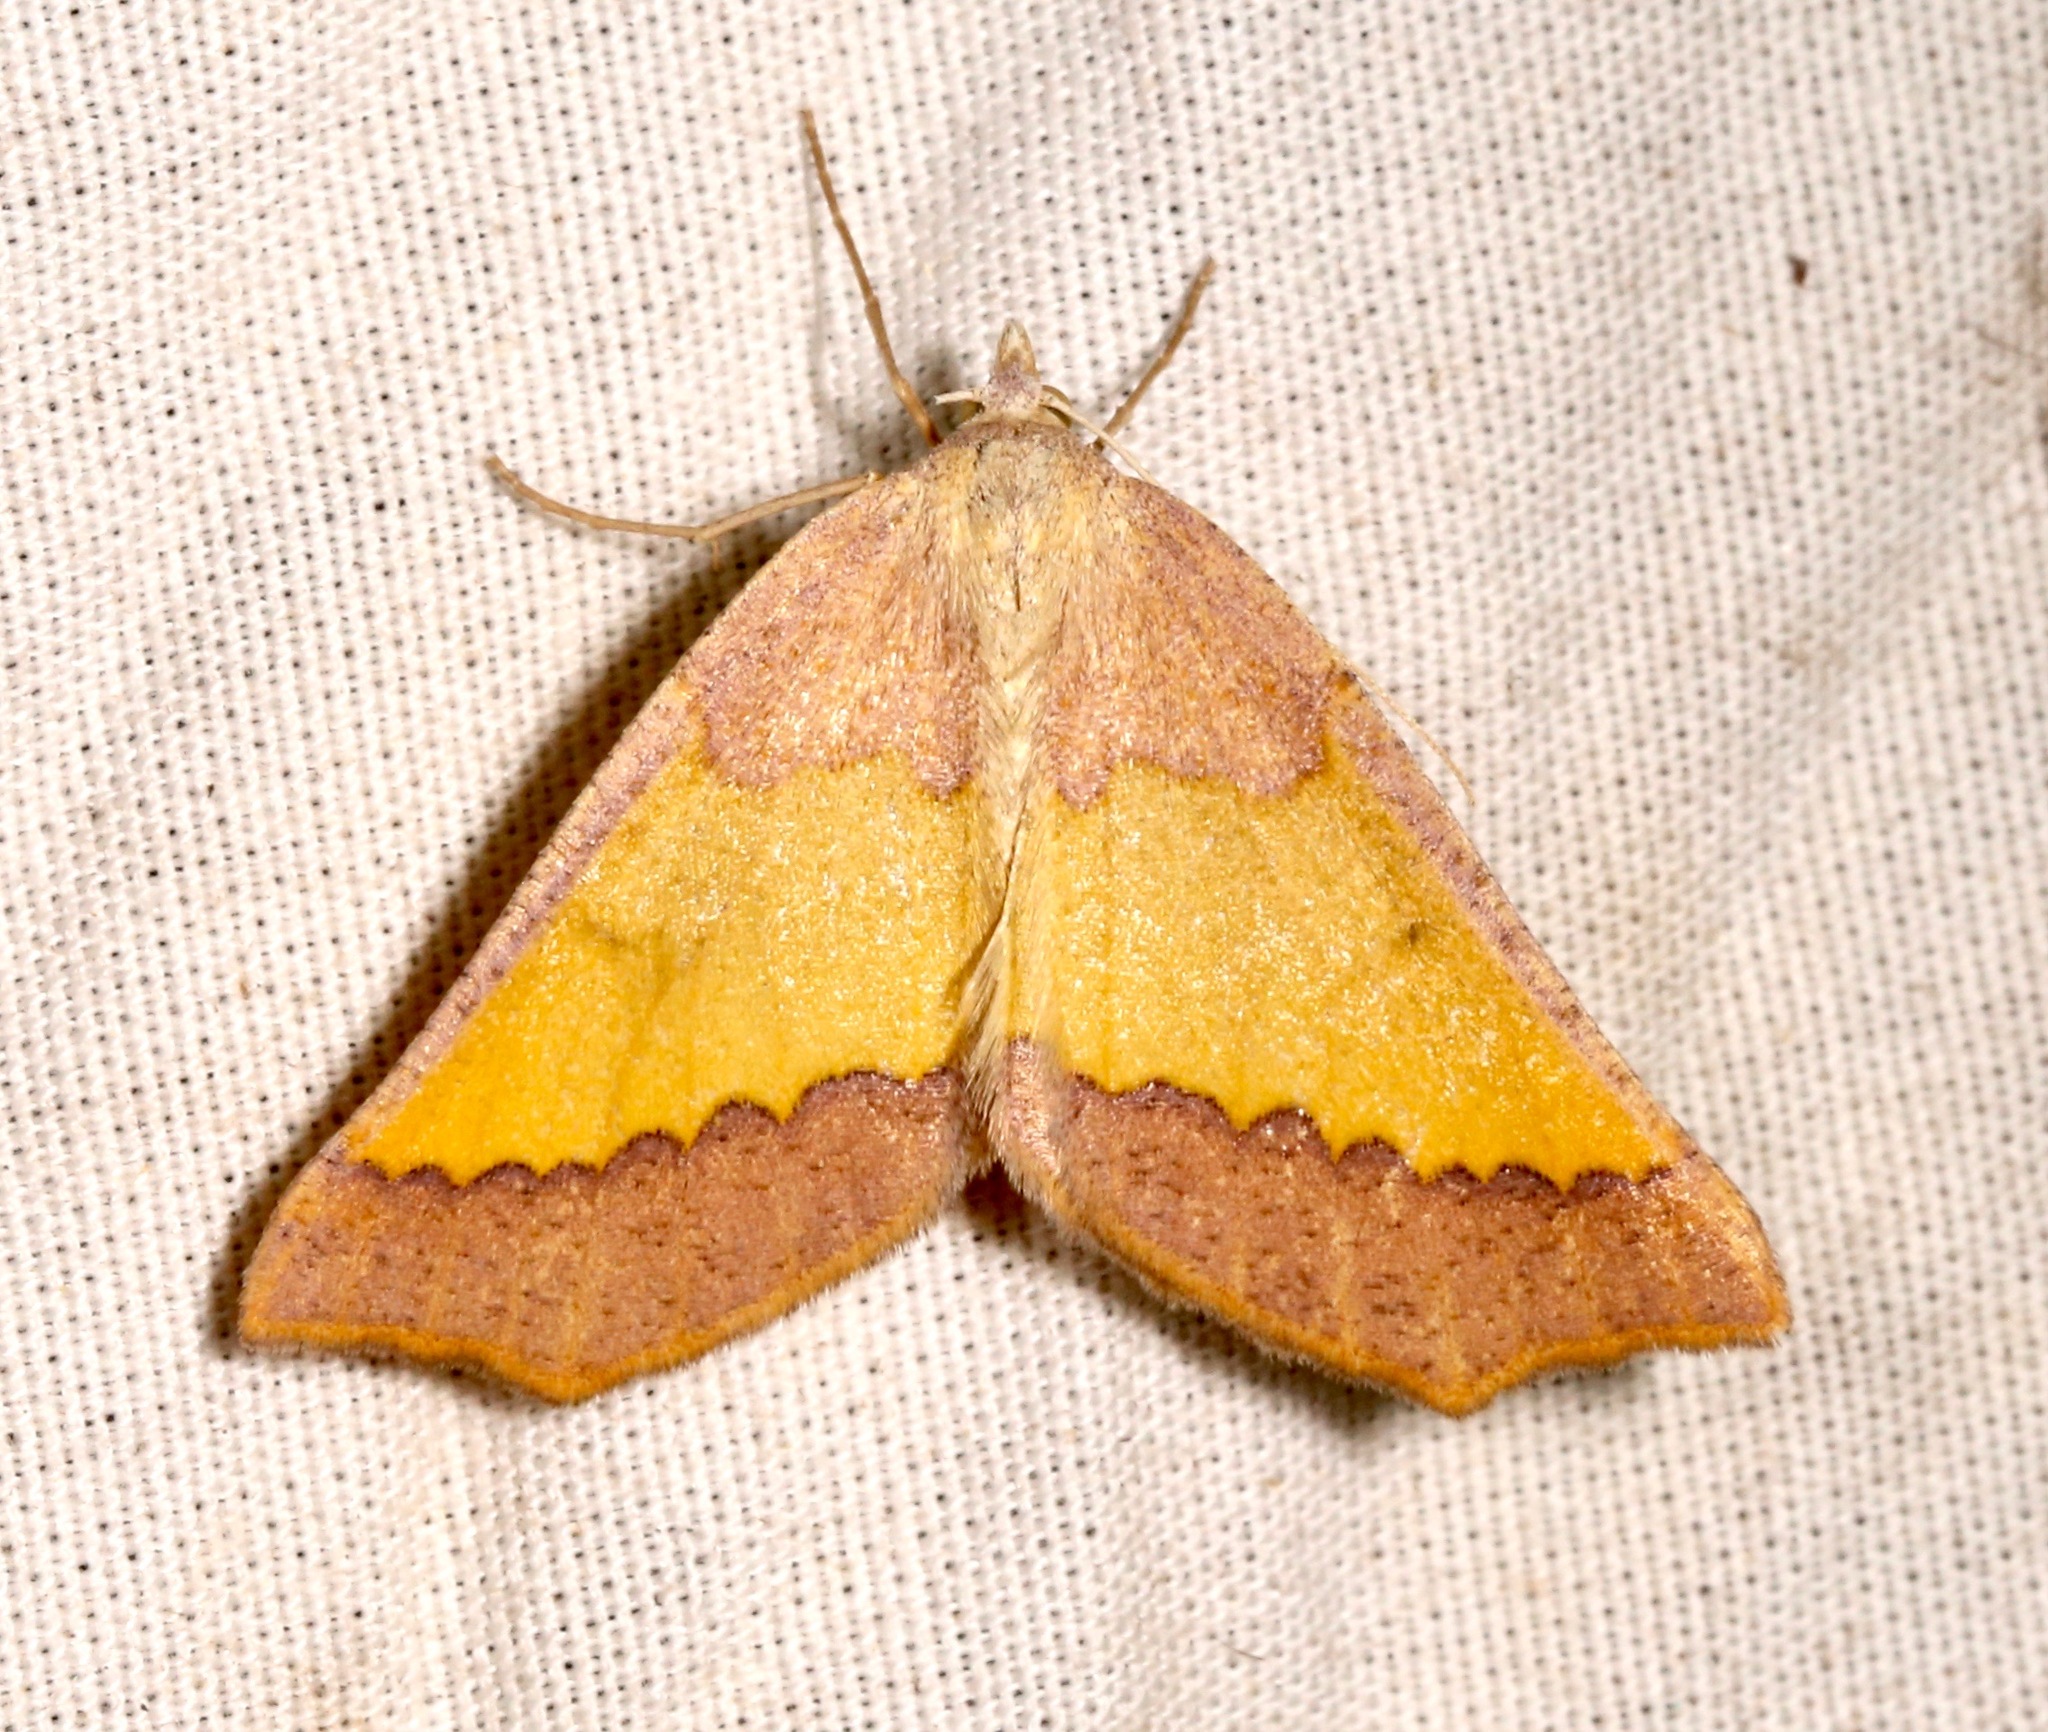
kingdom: Animalia
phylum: Arthropoda
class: Insecta
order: Lepidoptera
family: Geometridae
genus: Lychnosea
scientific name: Lychnosea helveolaria
